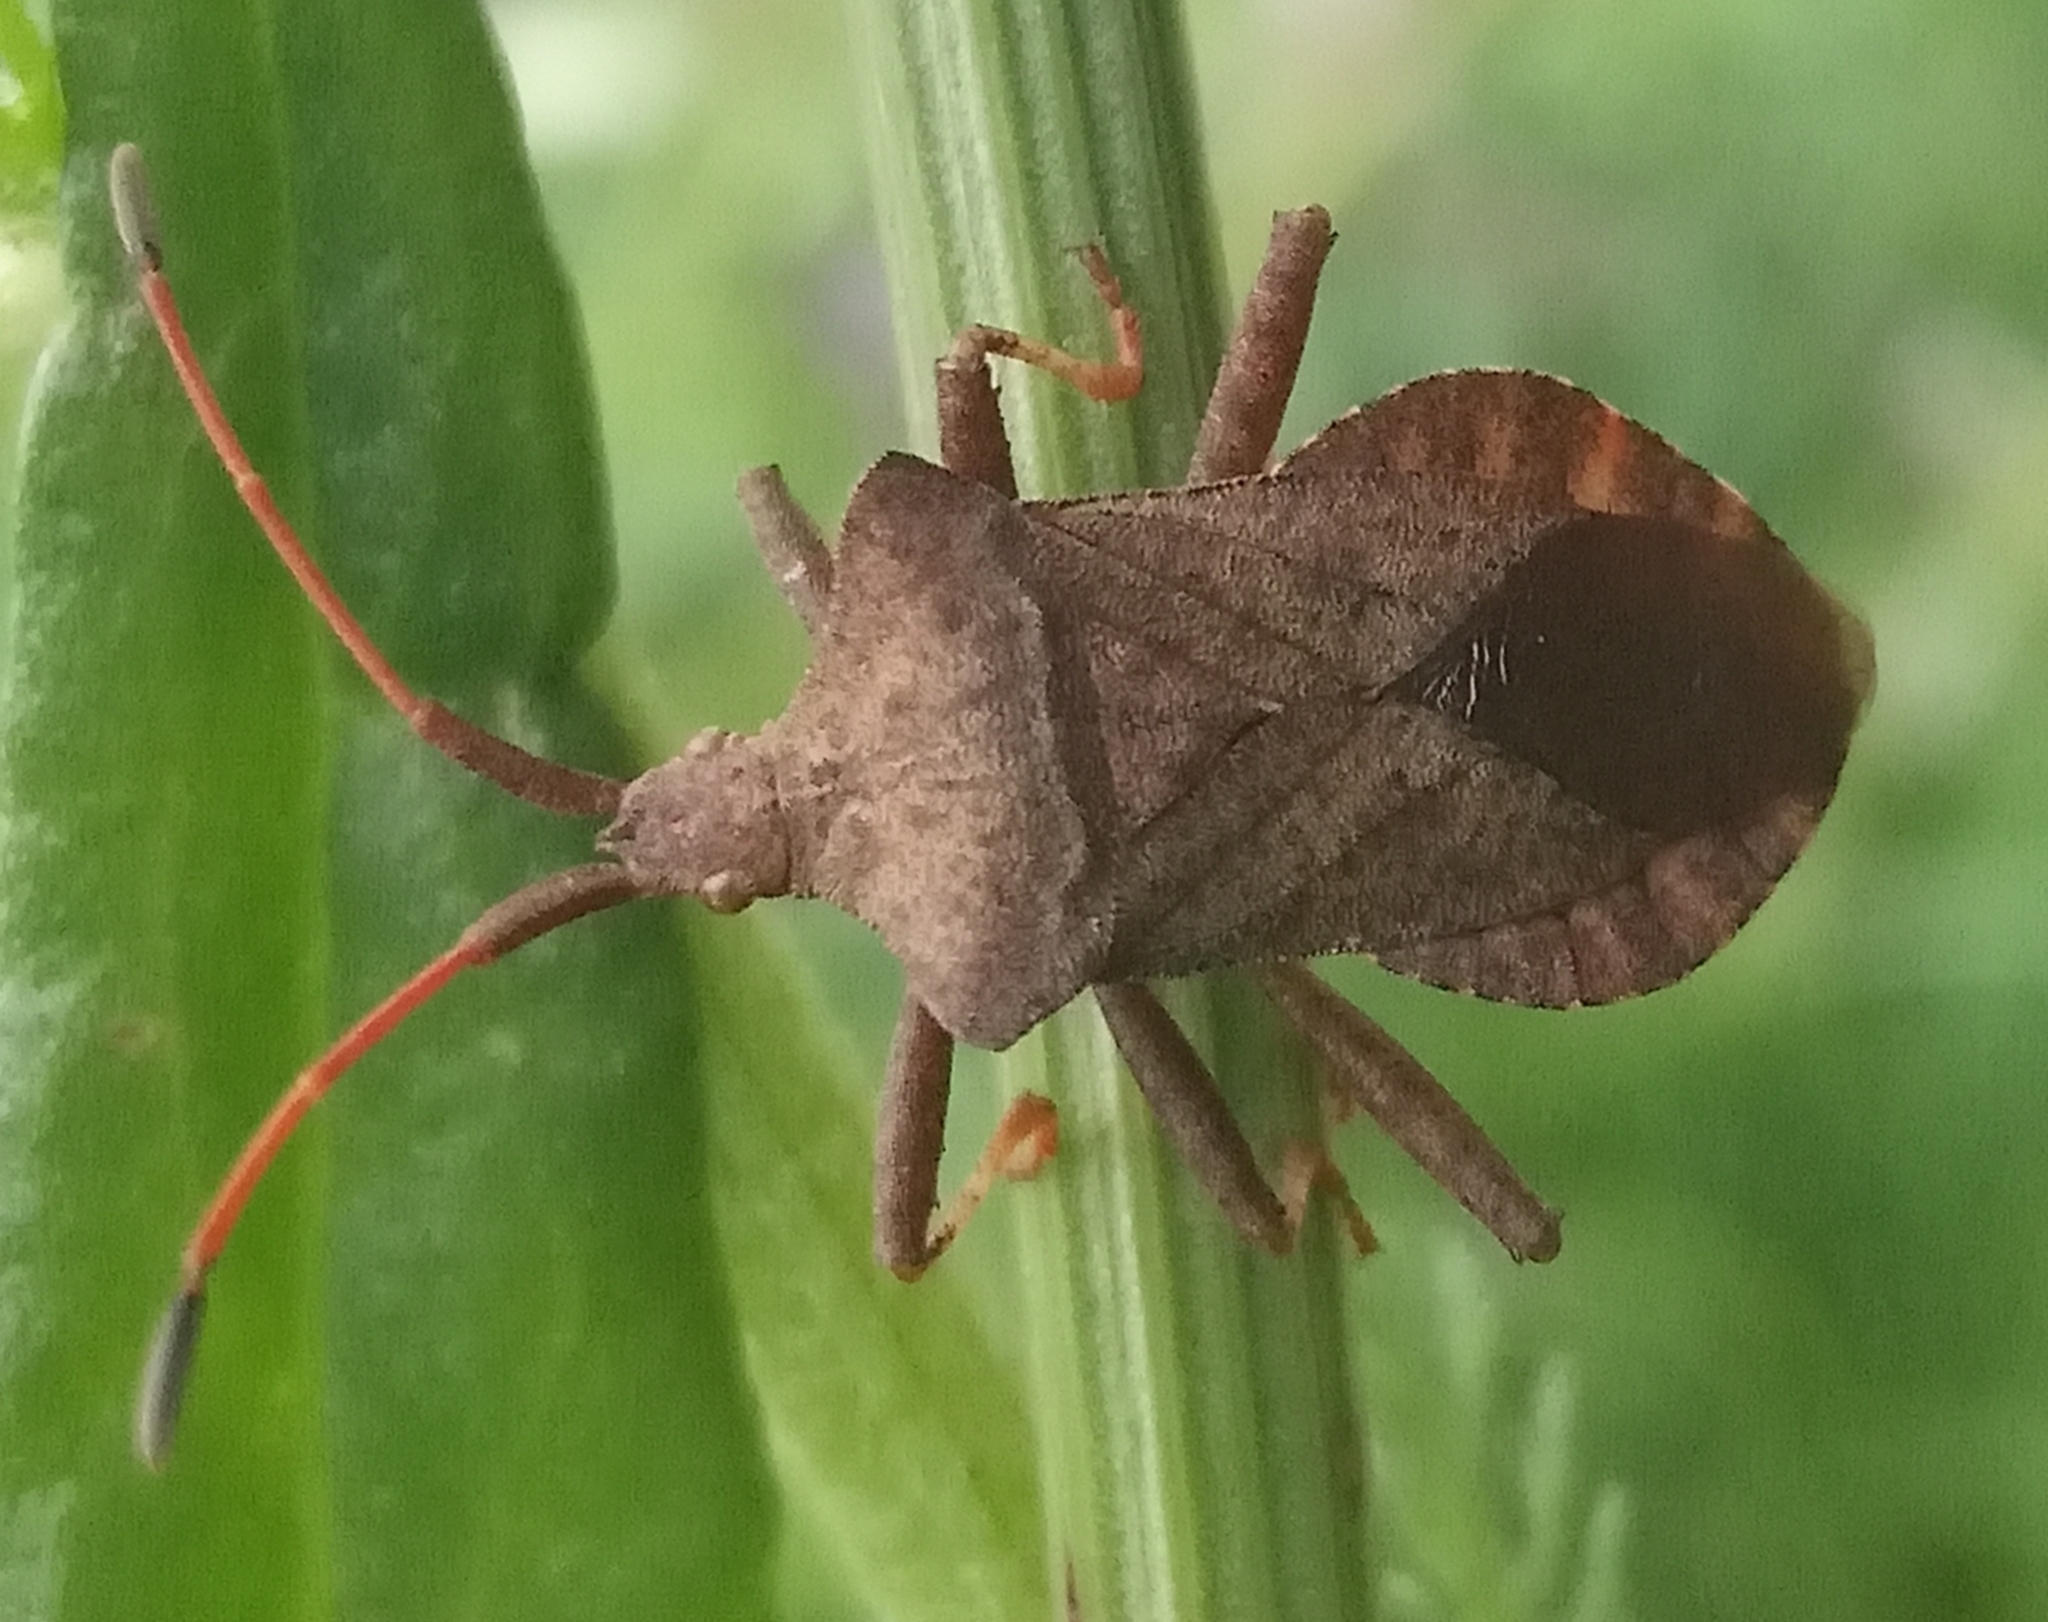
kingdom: Animalia
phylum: Arthropoda
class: Insecta
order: Hemiptera
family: Coreidae
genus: Coreus
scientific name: Coreus marginatus
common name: Dock bug
